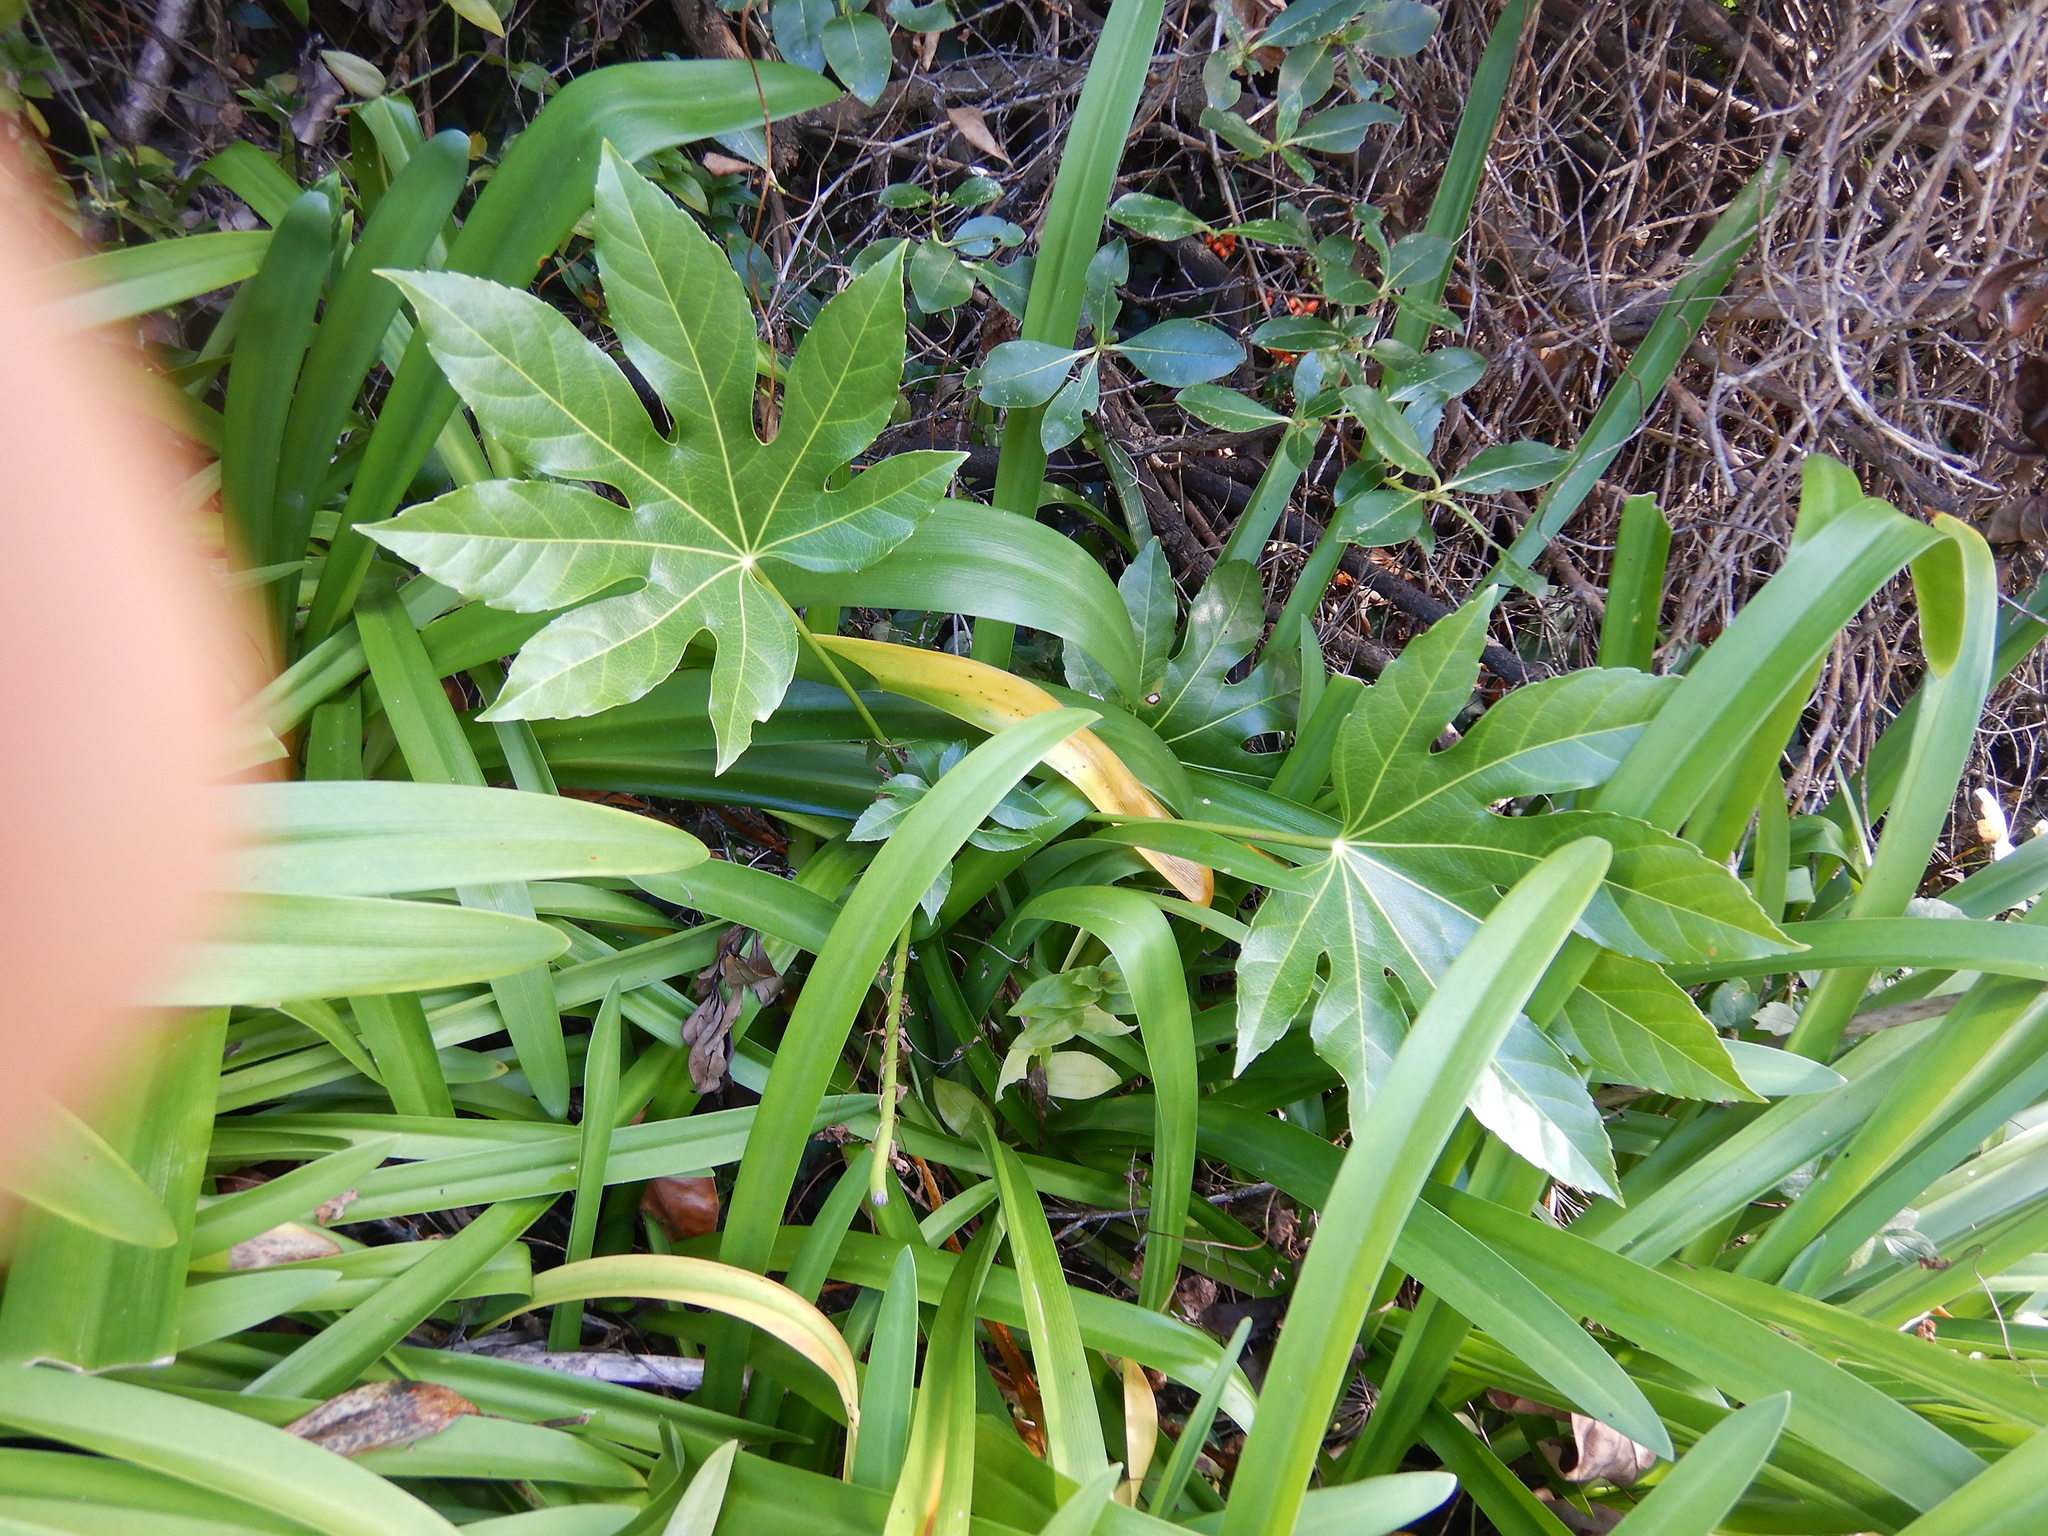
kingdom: Plantae
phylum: Tracheophyta
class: Magnoliopsida
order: Apiales
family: Araliaceae
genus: Fatsia
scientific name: Fatsia japonica
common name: Fatsia
